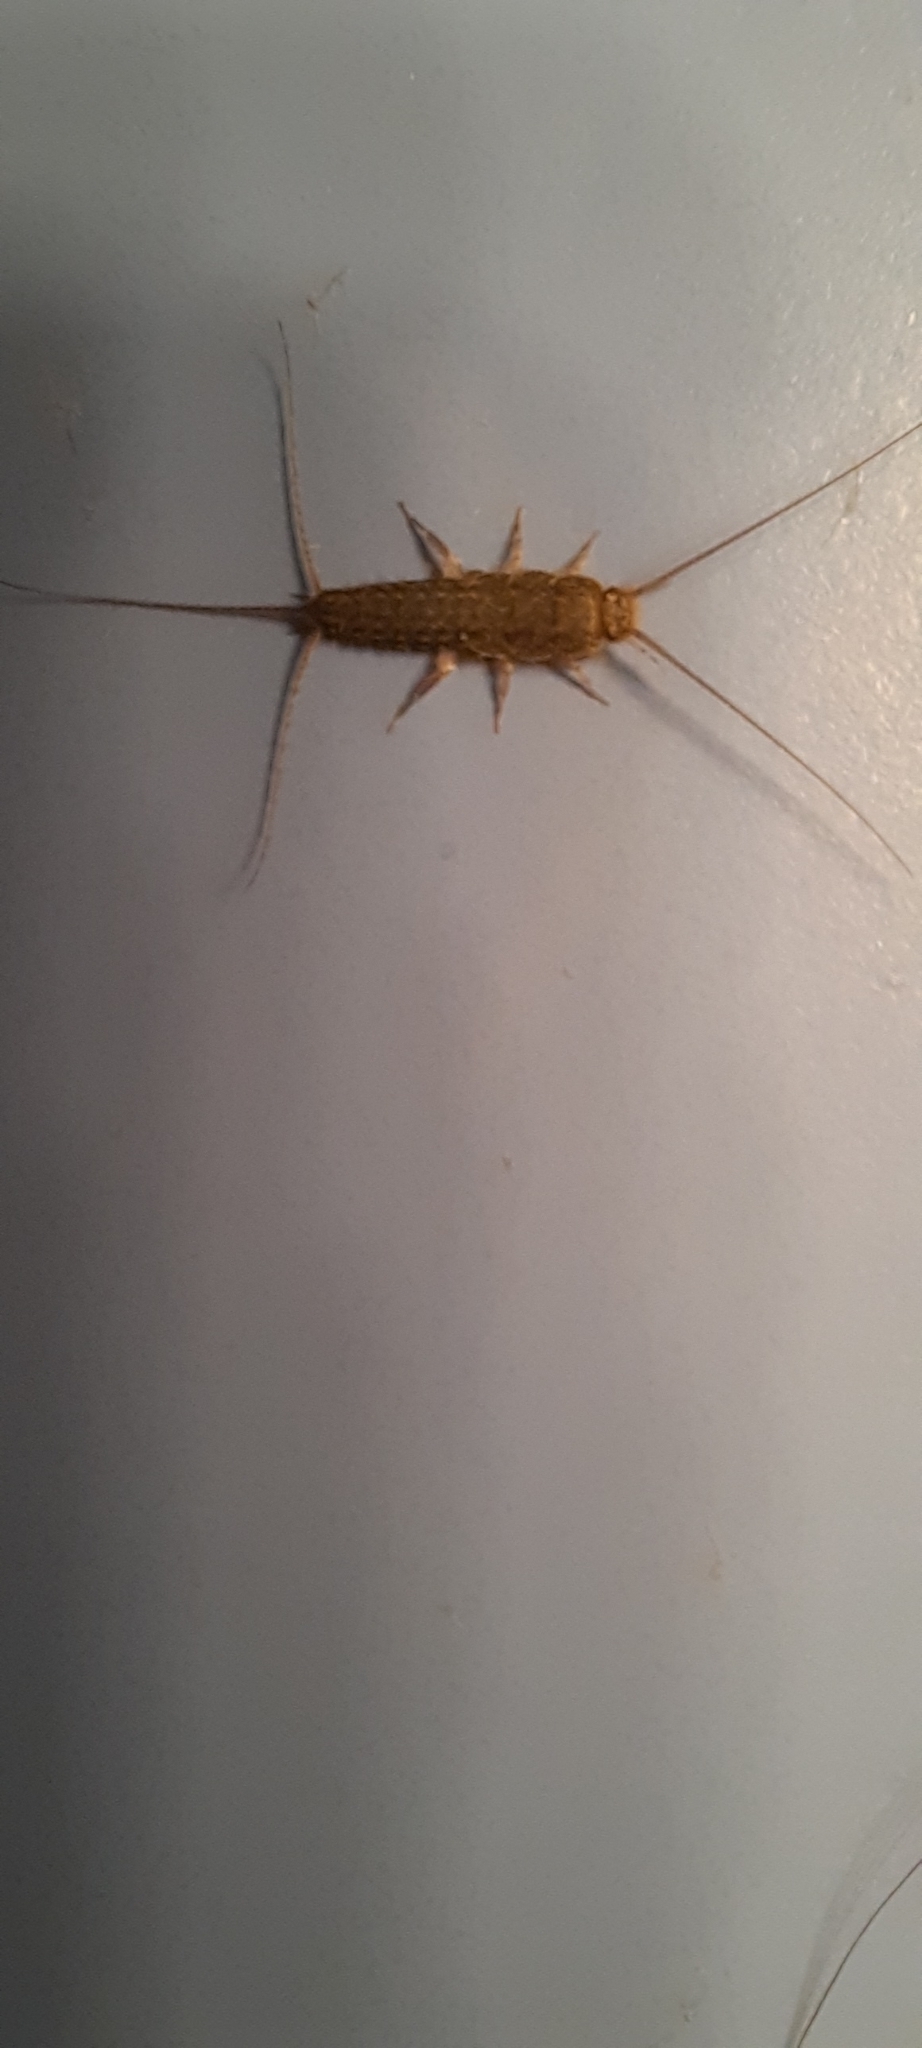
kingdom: Animalia
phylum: Arthropoda
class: Insecta
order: Zygentoma
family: Lepismatidae
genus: Ctenolepisma
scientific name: Ctenolepisma lineata
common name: Four-lined silverfish
